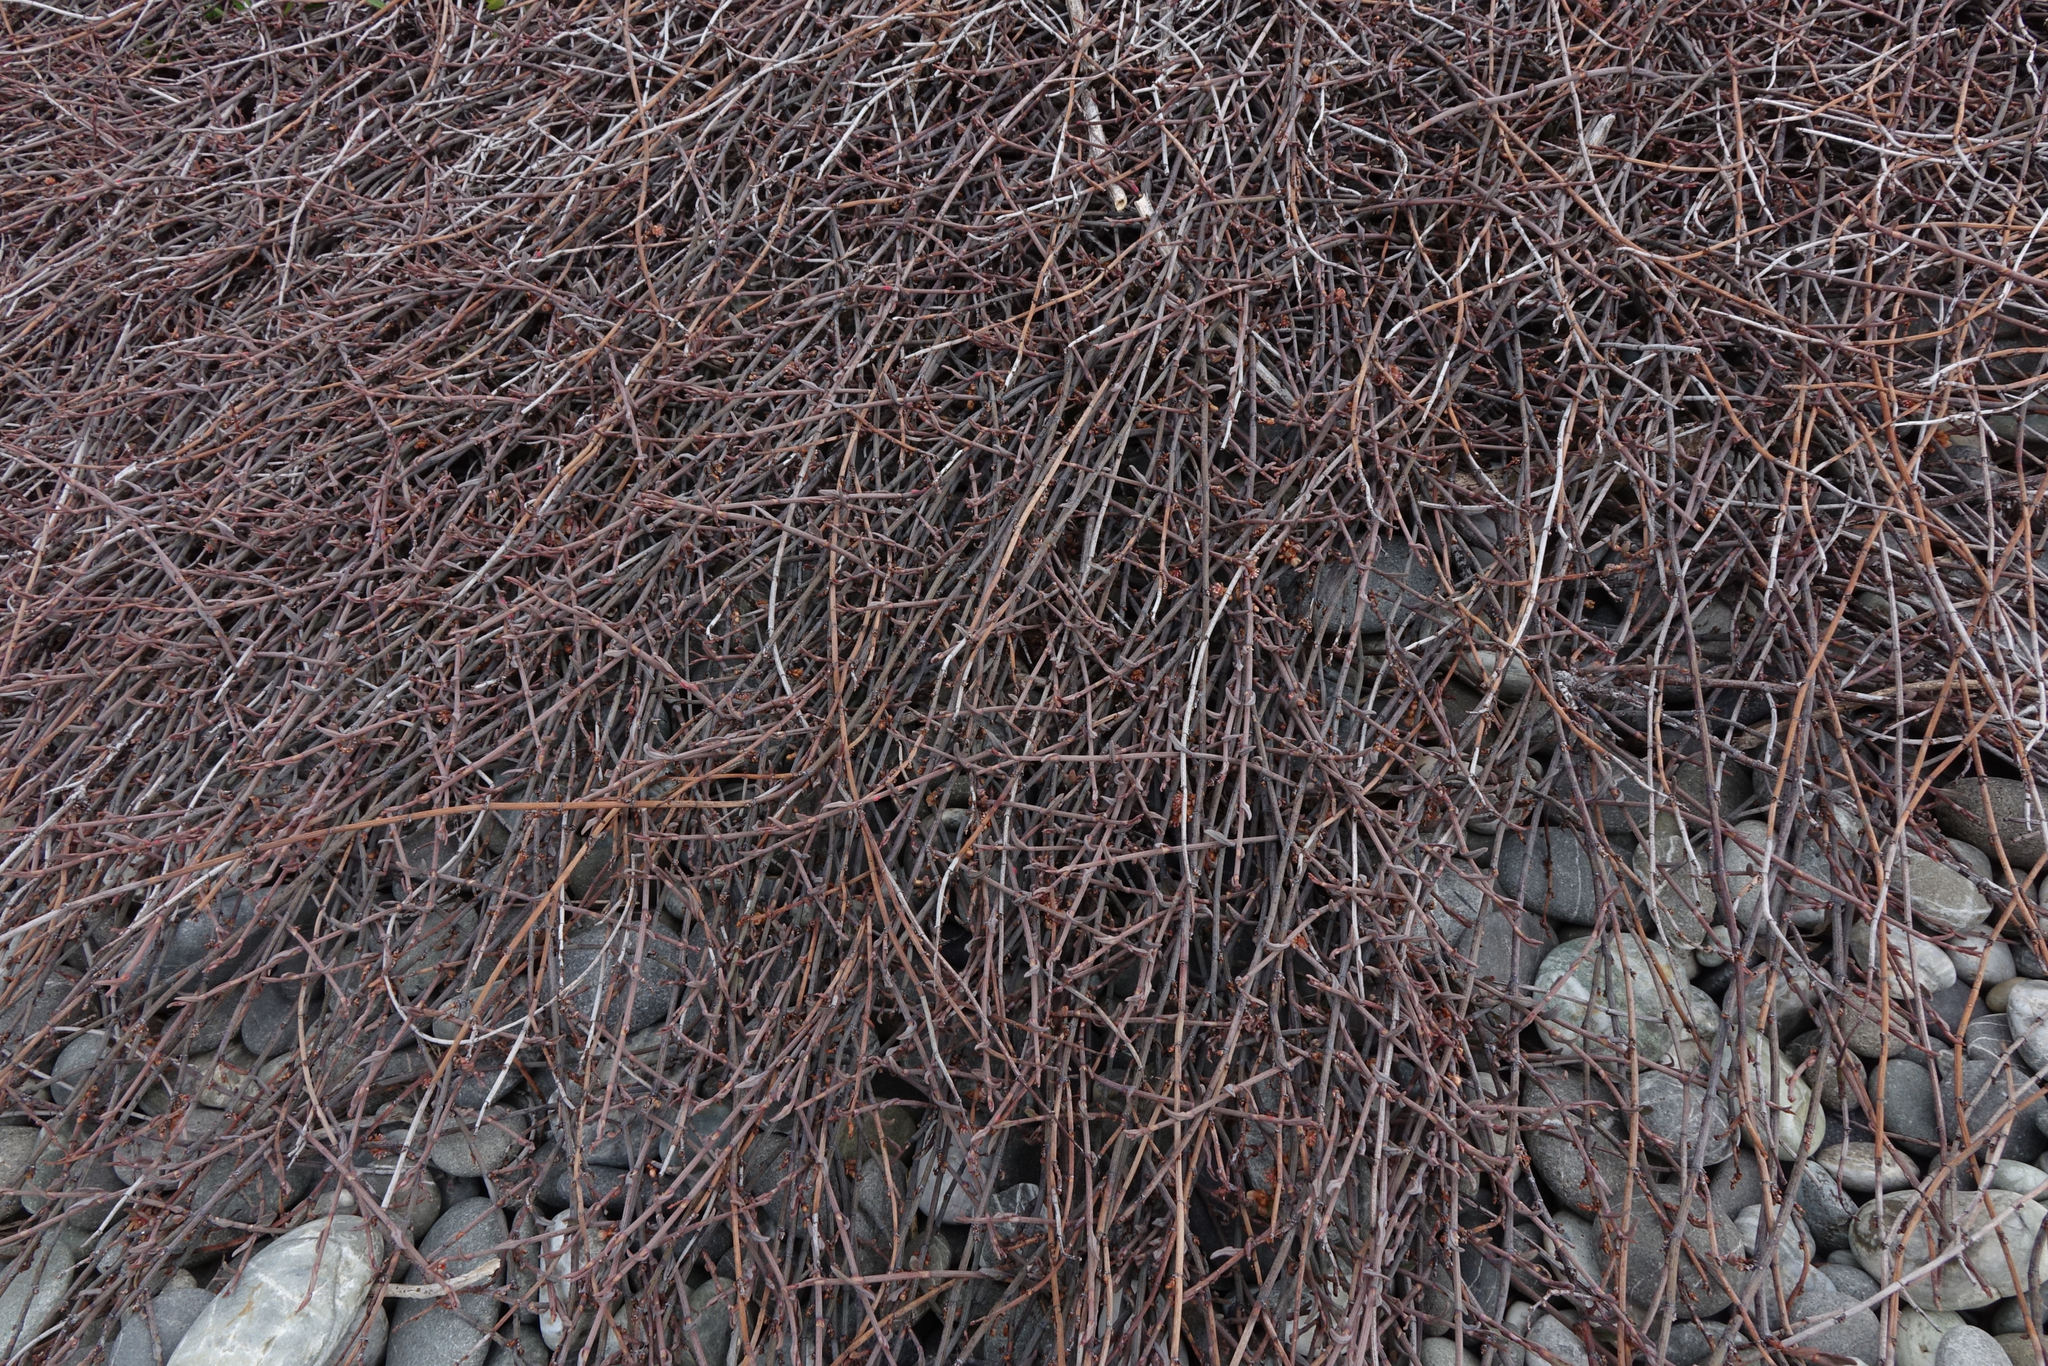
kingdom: Plantae
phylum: Tracheophyta
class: Magnoliopsida
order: Caryophyllales
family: Polygonaceae
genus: Muehlenbeckia
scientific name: Muehlenbeckia ephedroides
